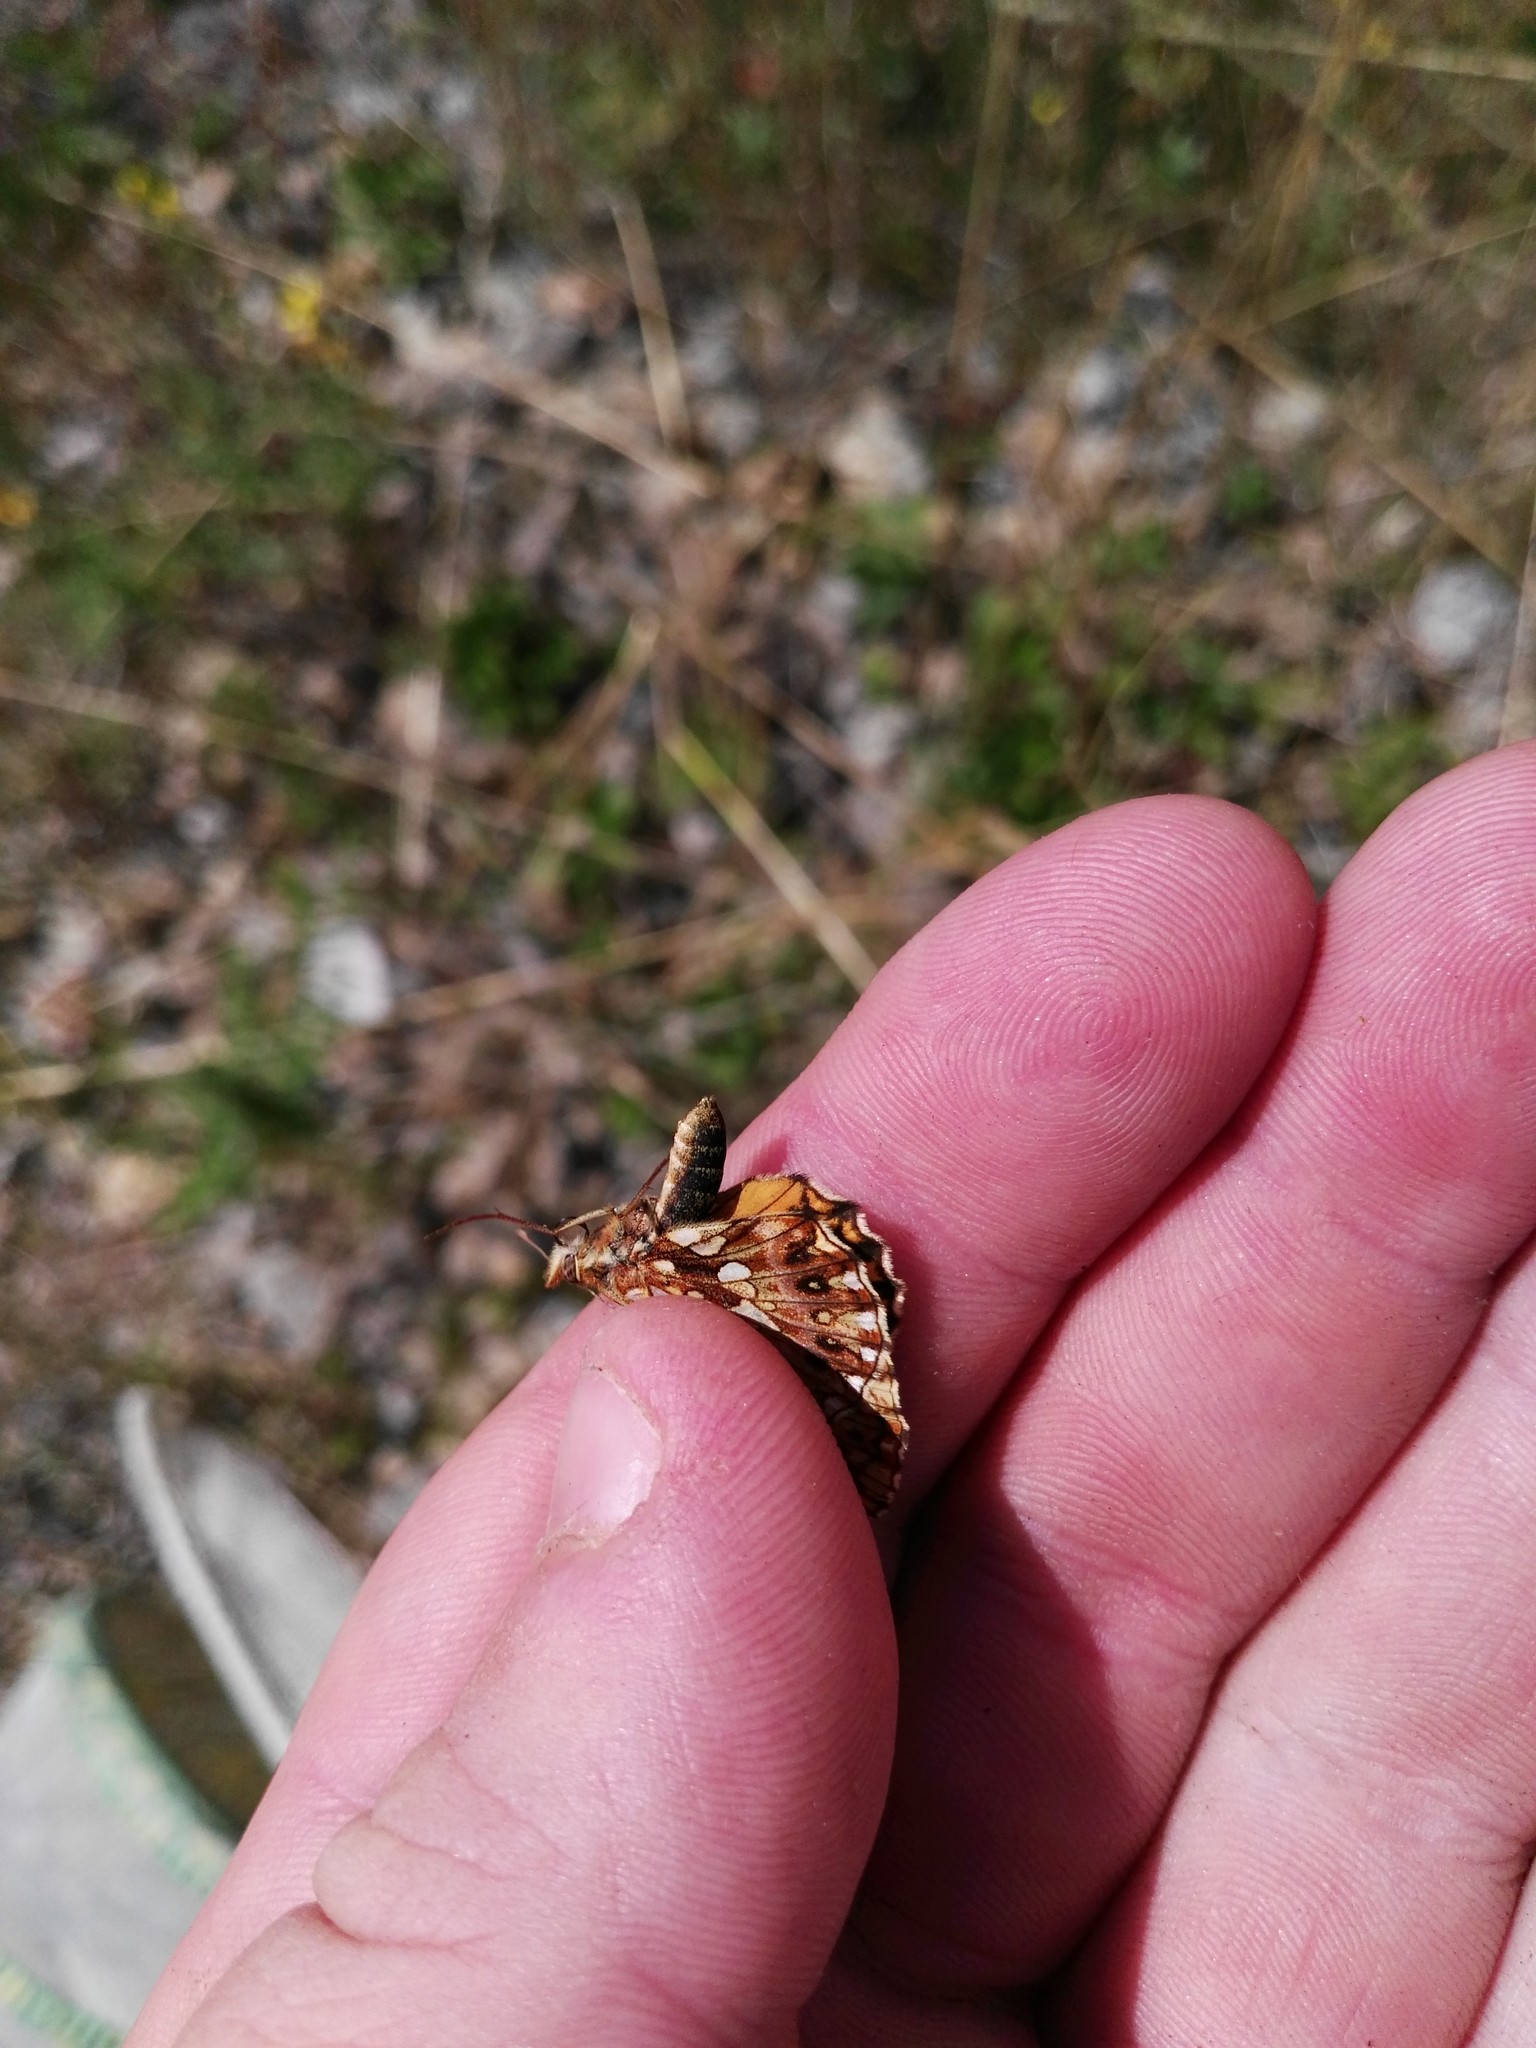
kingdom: Animalia
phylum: Arthropoda
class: Insecta
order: Lepidoptera
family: Nymphalidae
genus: Boloria
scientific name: Boloria dia
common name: Weaver's fritillary
